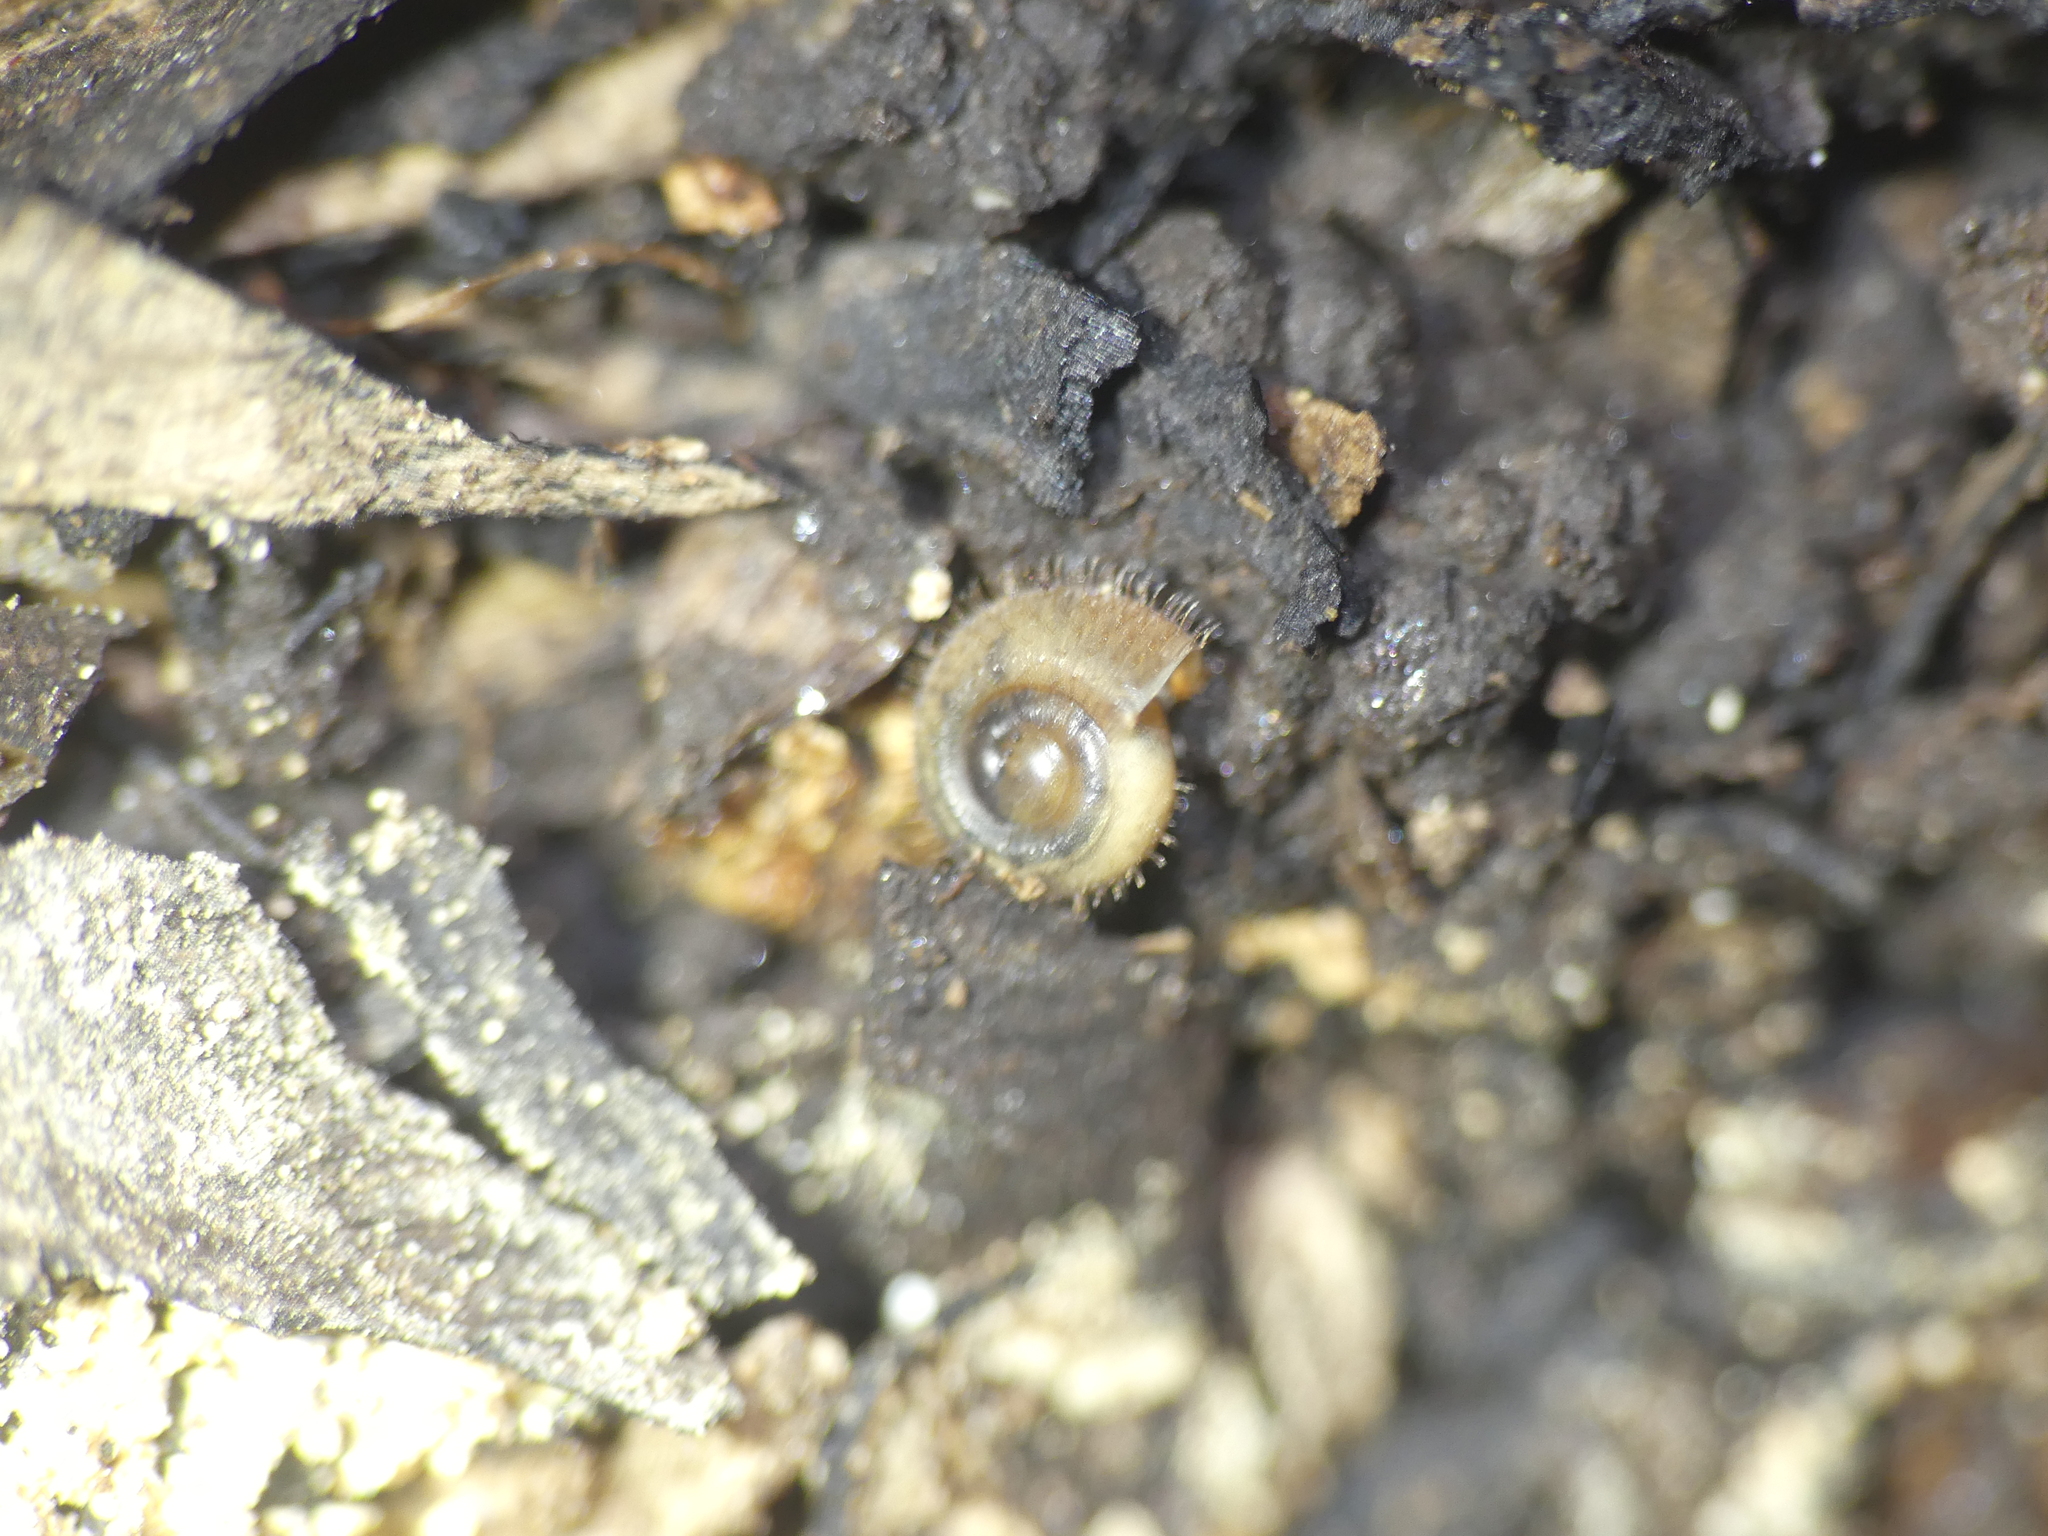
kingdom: Animalia
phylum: Mollusca
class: Gastropoda
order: Stylommatophora
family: Helicodontidae
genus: Helicodonta
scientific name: Helicodonta obvoluta
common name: Cheese snail
